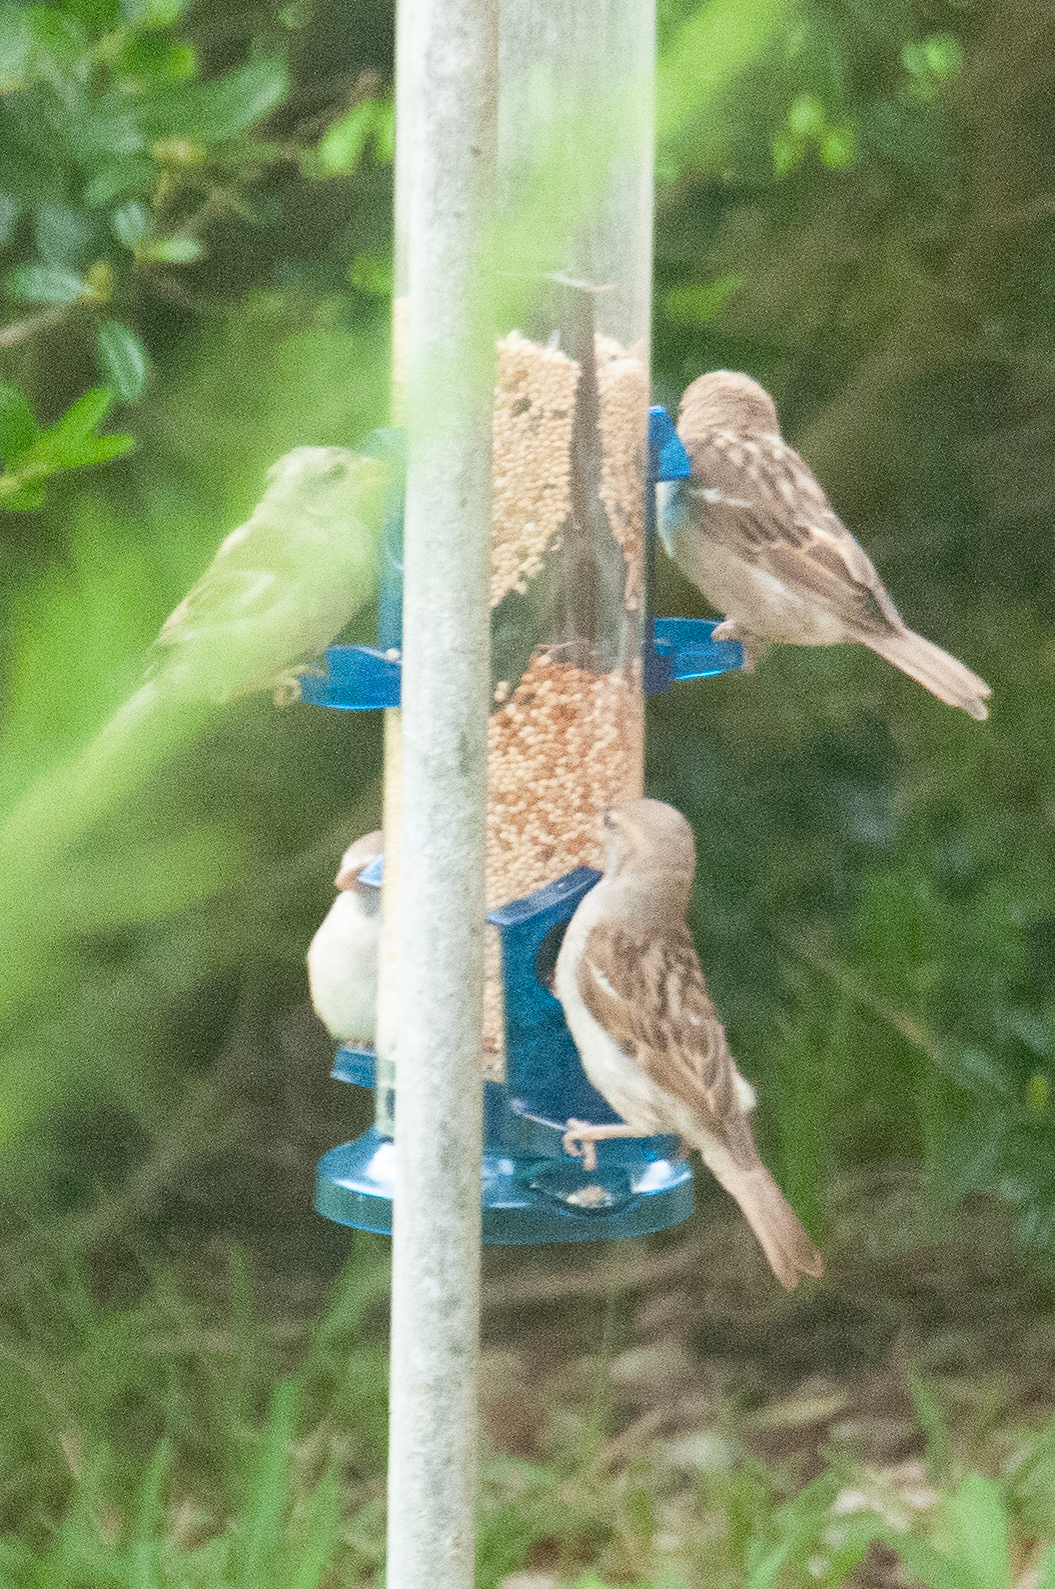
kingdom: Animalia
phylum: Chordata
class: Aves
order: Passeriformes
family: Passeridae
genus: Passer
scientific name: Passer domesticus
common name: House sparrow
